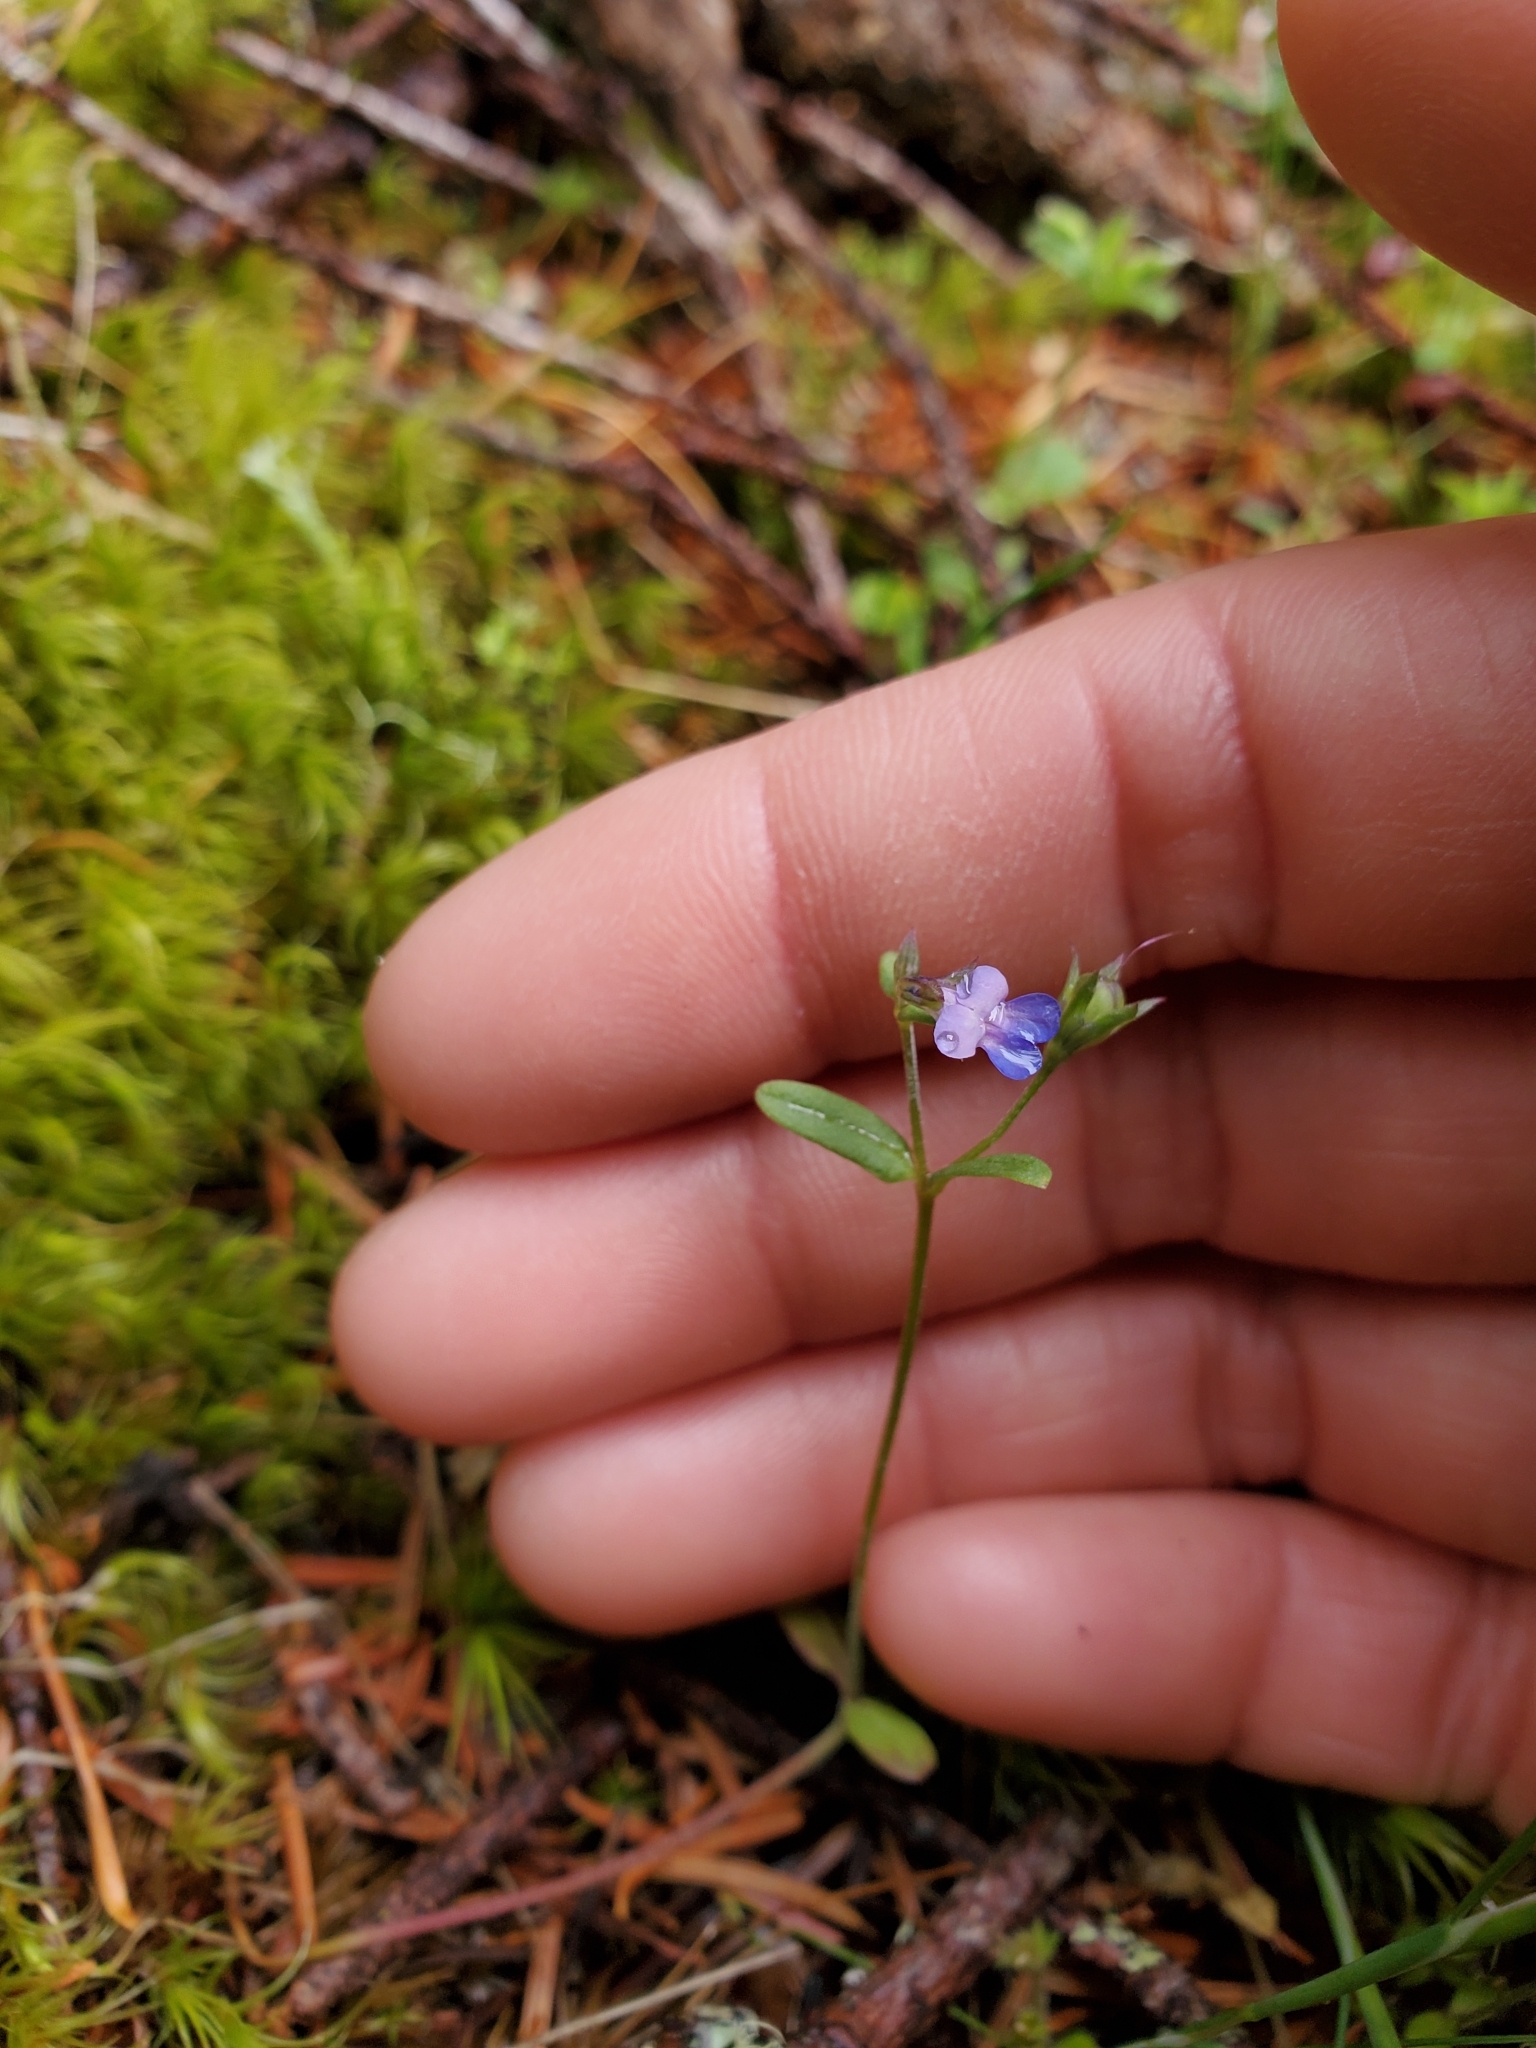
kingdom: Plantae
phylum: Tracheophyta
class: Magnoliopsida
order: Lamiales
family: Plantaginaceae
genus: Collinsia
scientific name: Collinsia parviflora
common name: Blue-lips
